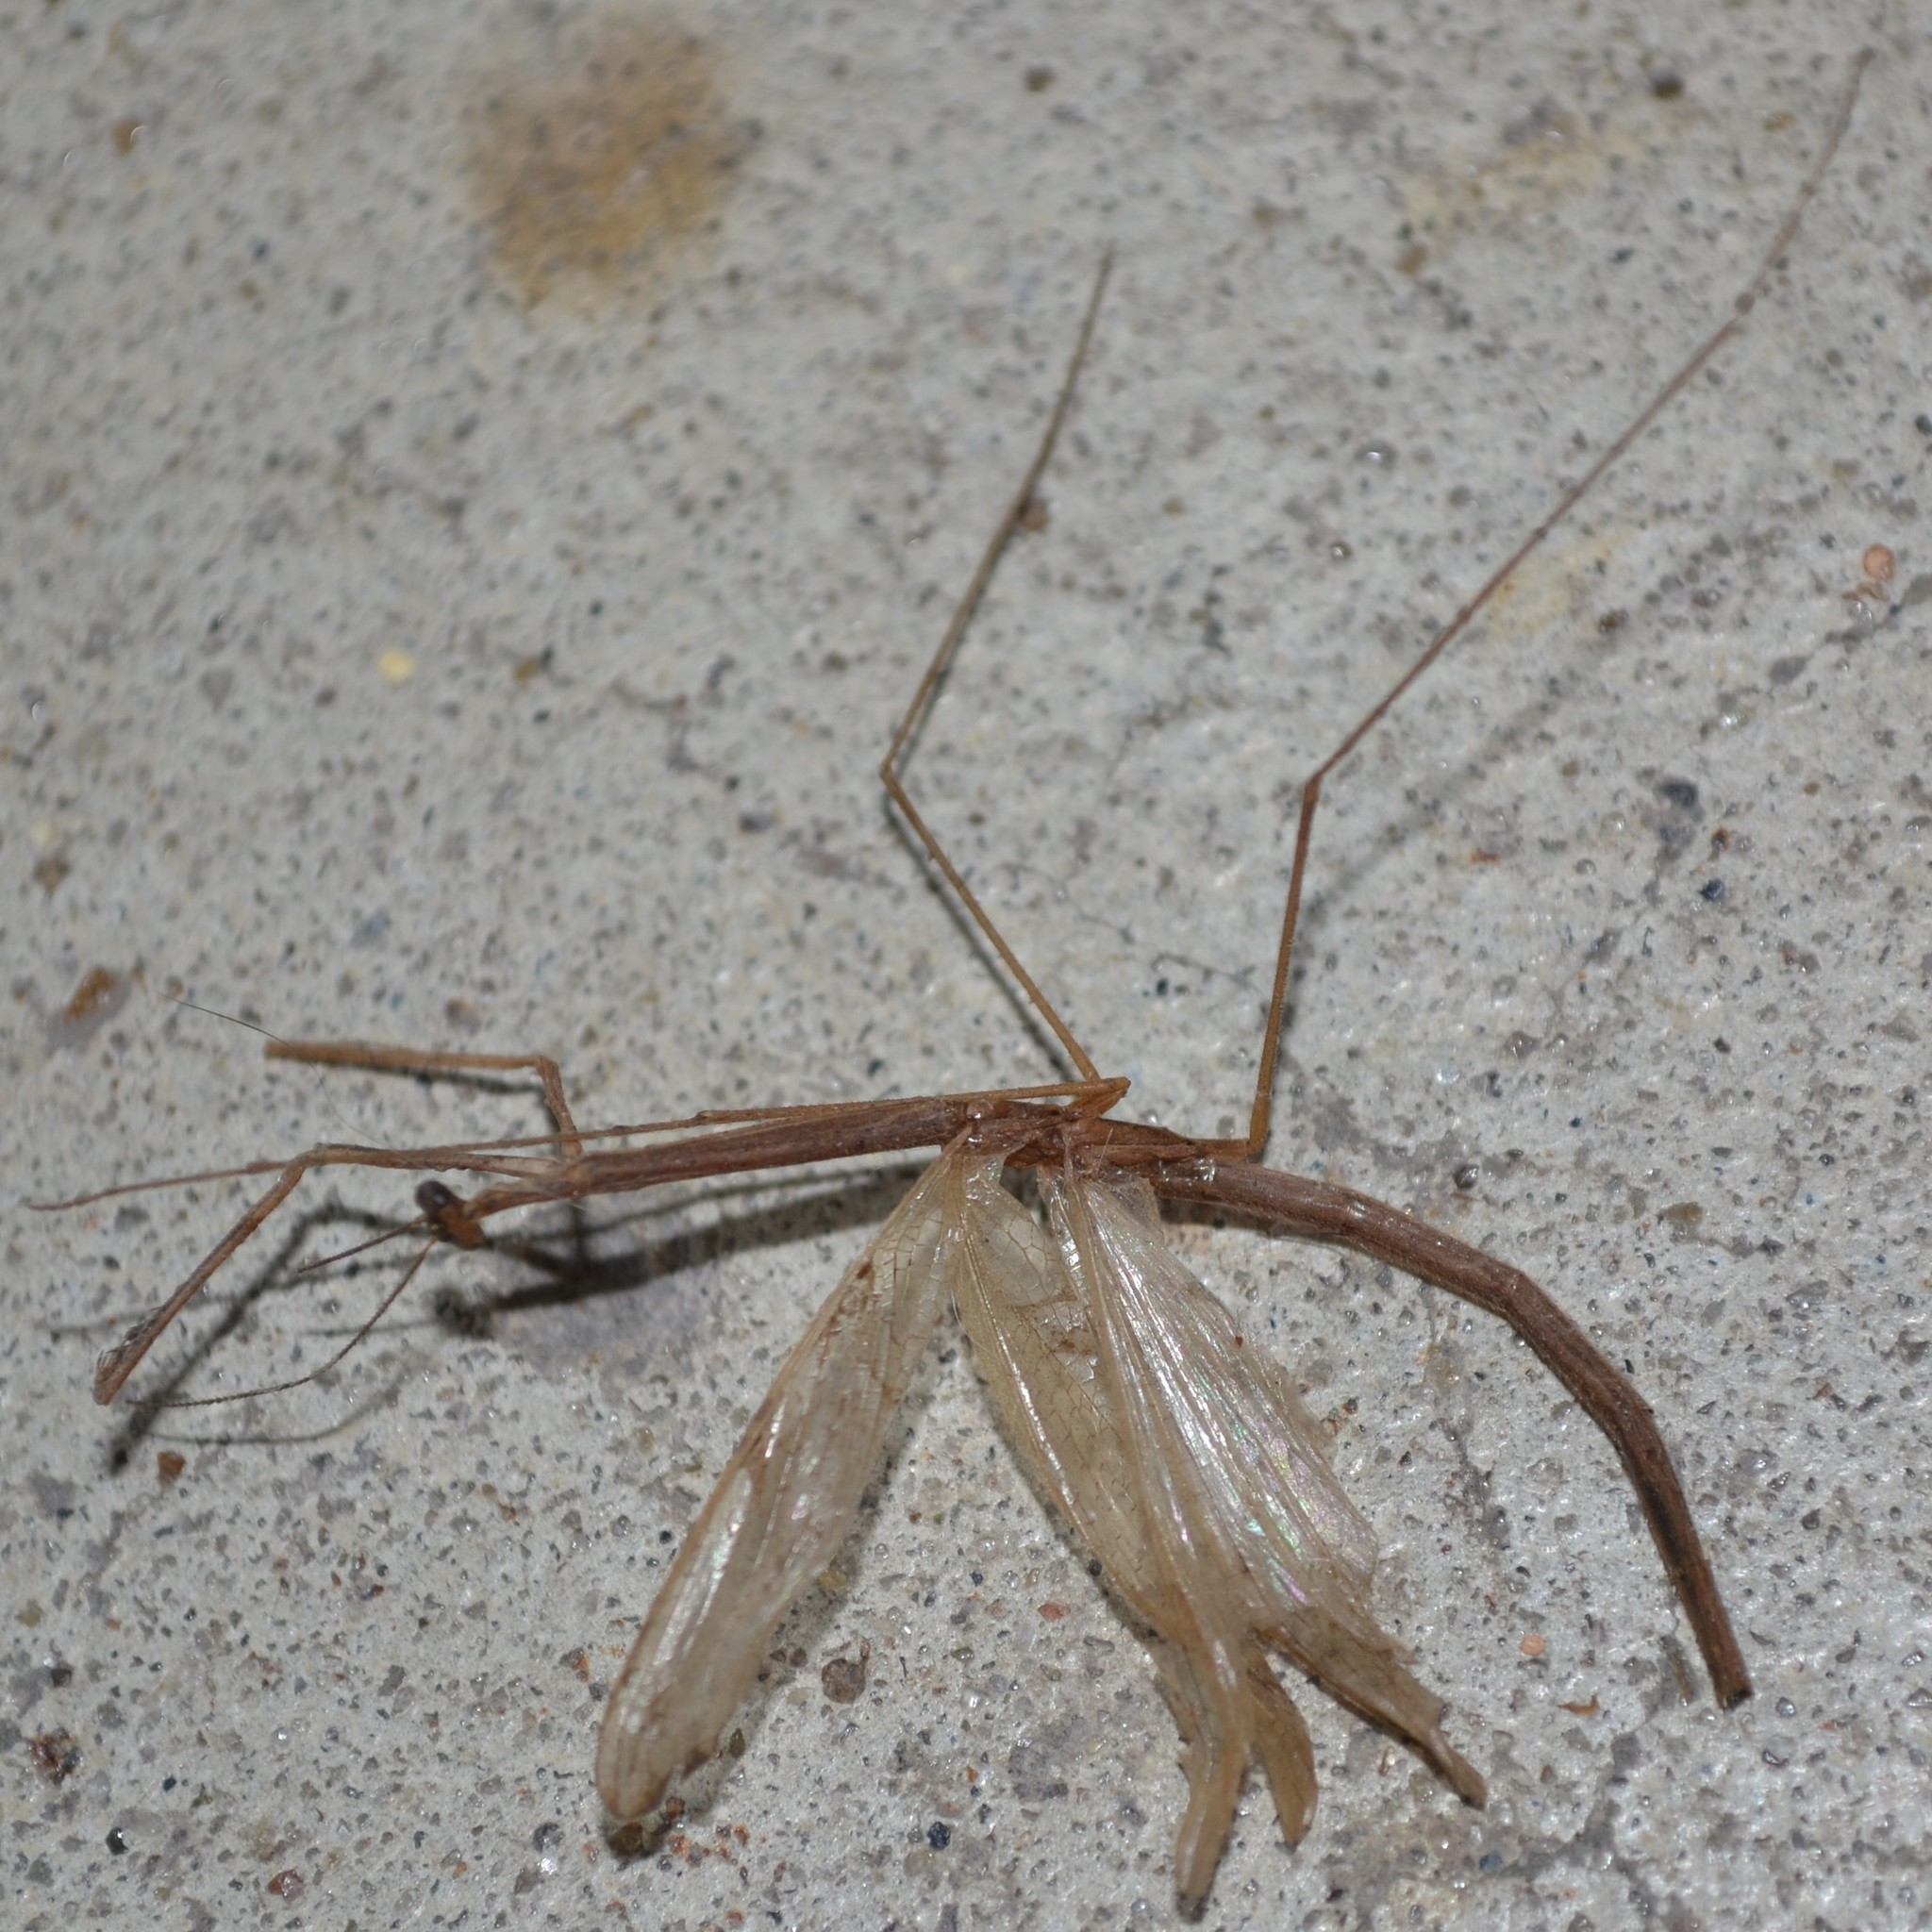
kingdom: Animalia
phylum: Arthropoda
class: Insecta
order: Mantodea
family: Thespidae
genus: Thesprotia
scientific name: Thesprotia graminis
